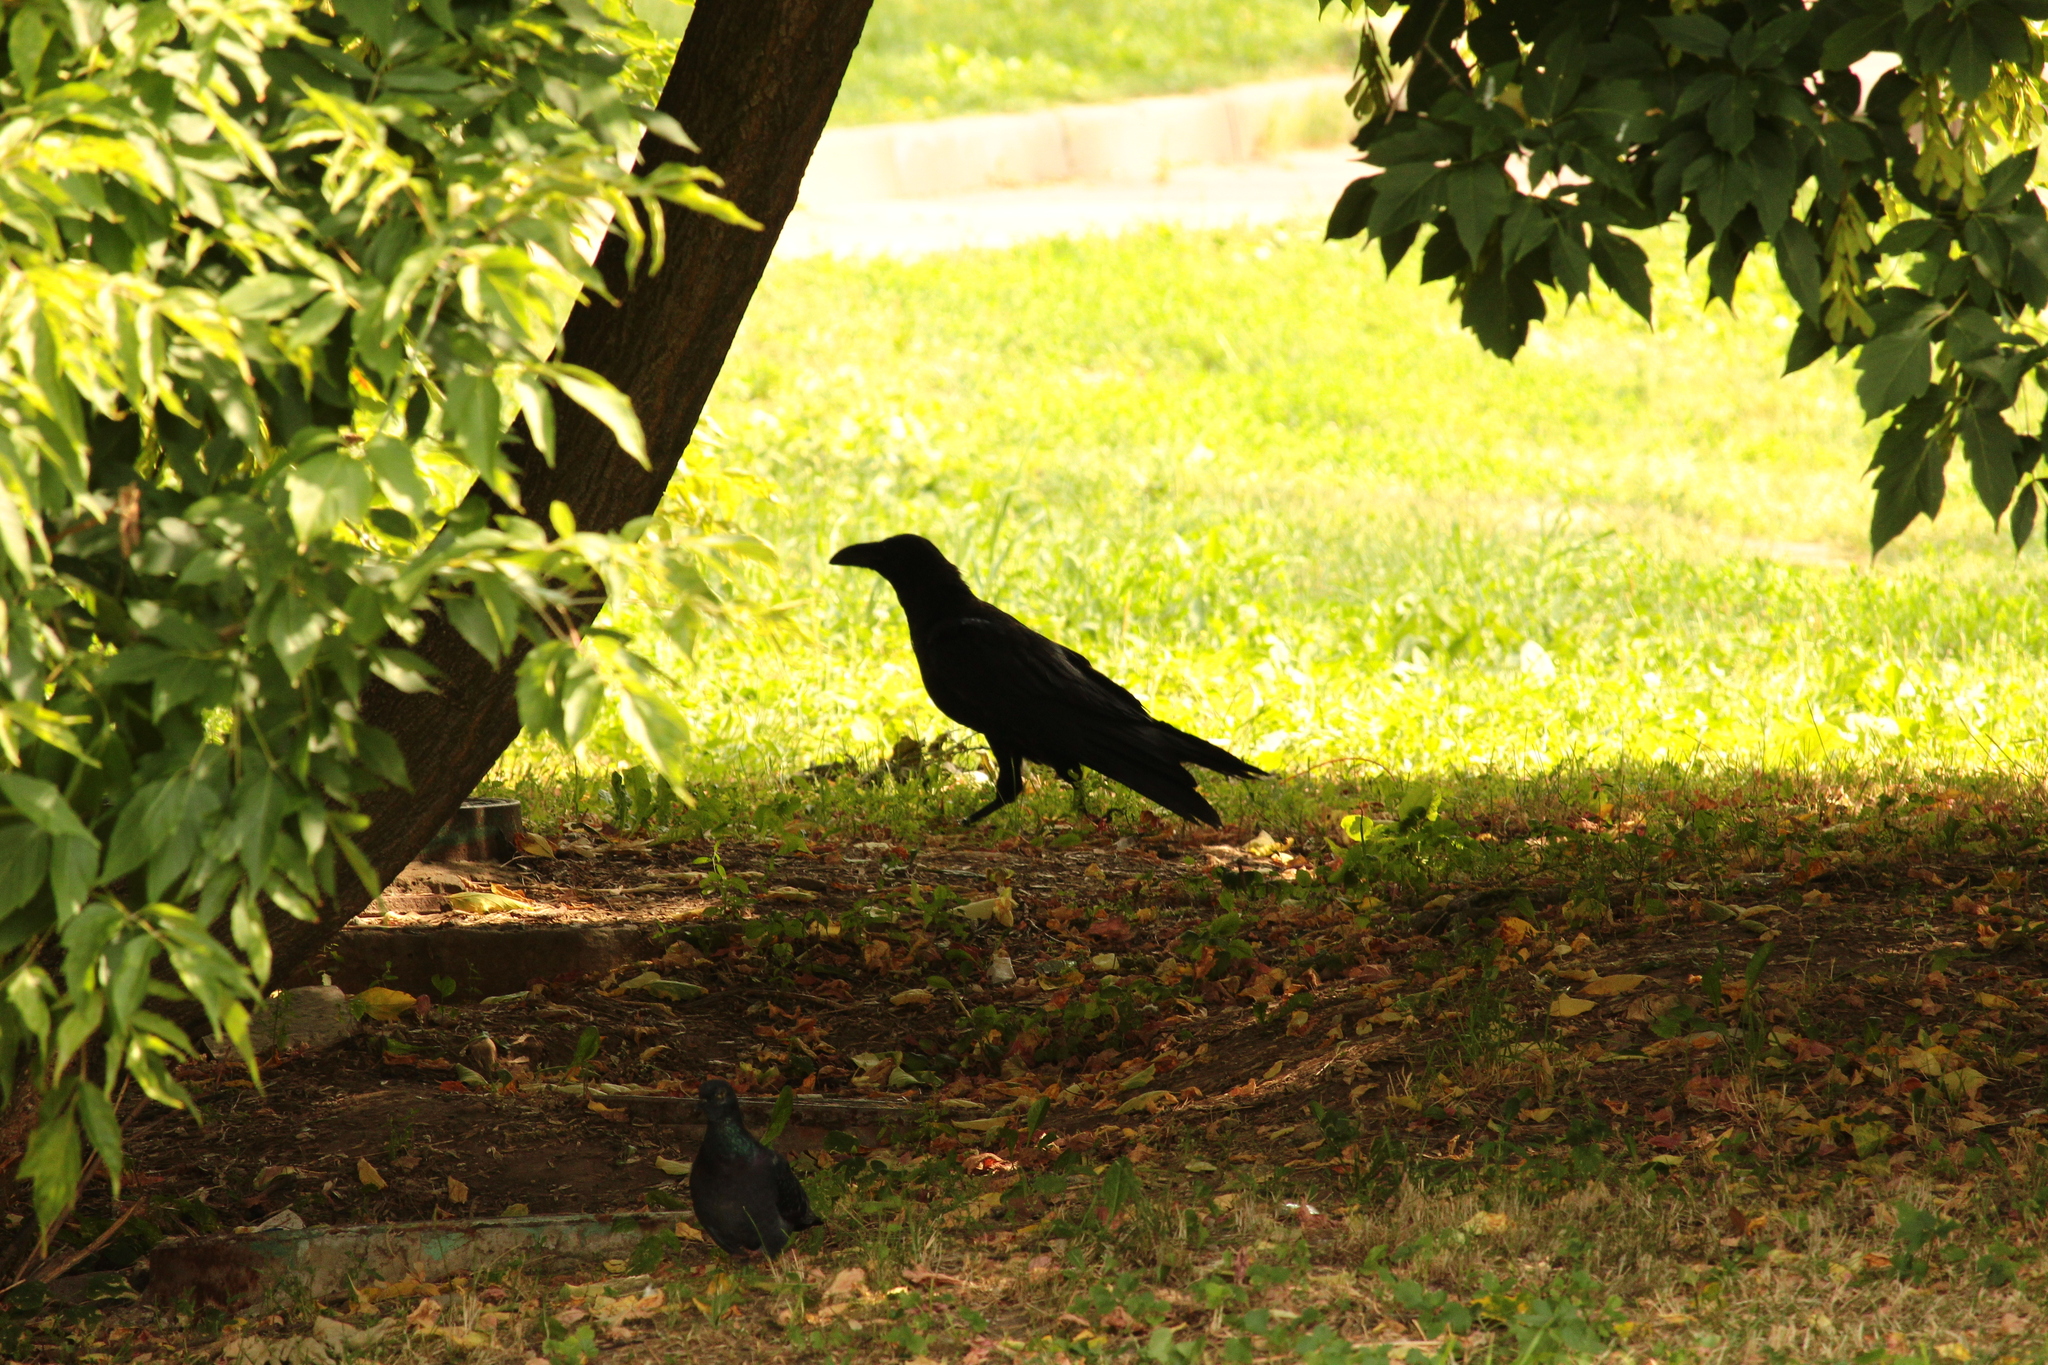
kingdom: Animalia
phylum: Chordata
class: Aves
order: Passeriformes
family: Corvidae
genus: Corvus
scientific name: Corvus corax
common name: Common raven
